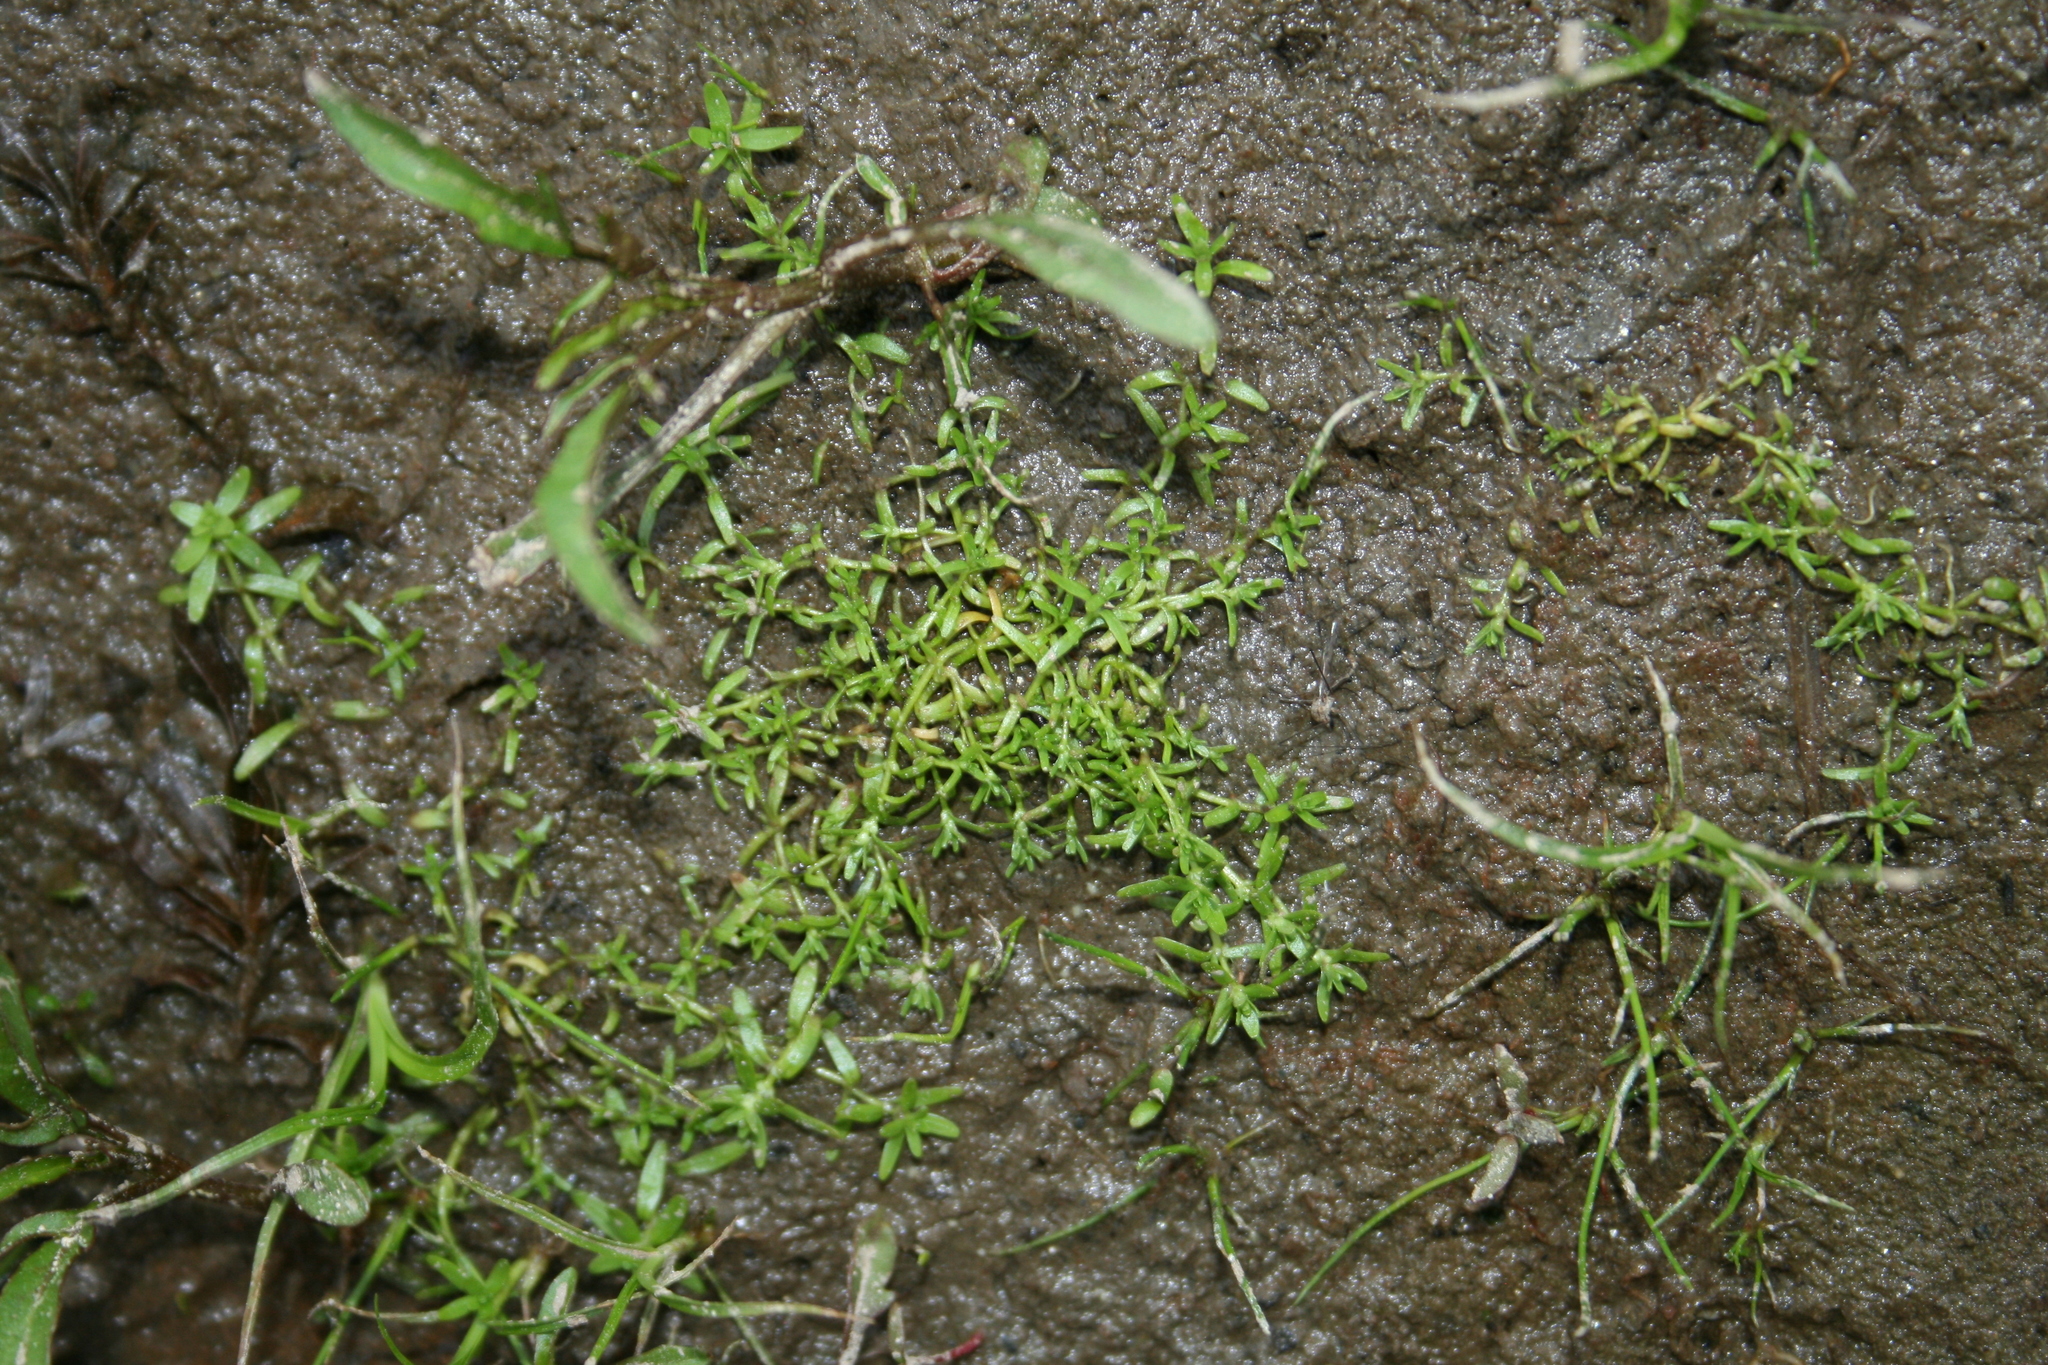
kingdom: Plantae
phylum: Tracheophyta
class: Magnoliopsida
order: Lamiales
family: Plantaginaceae
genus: Callitriche
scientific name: Callitriche palustris
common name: Spring water-starwort
